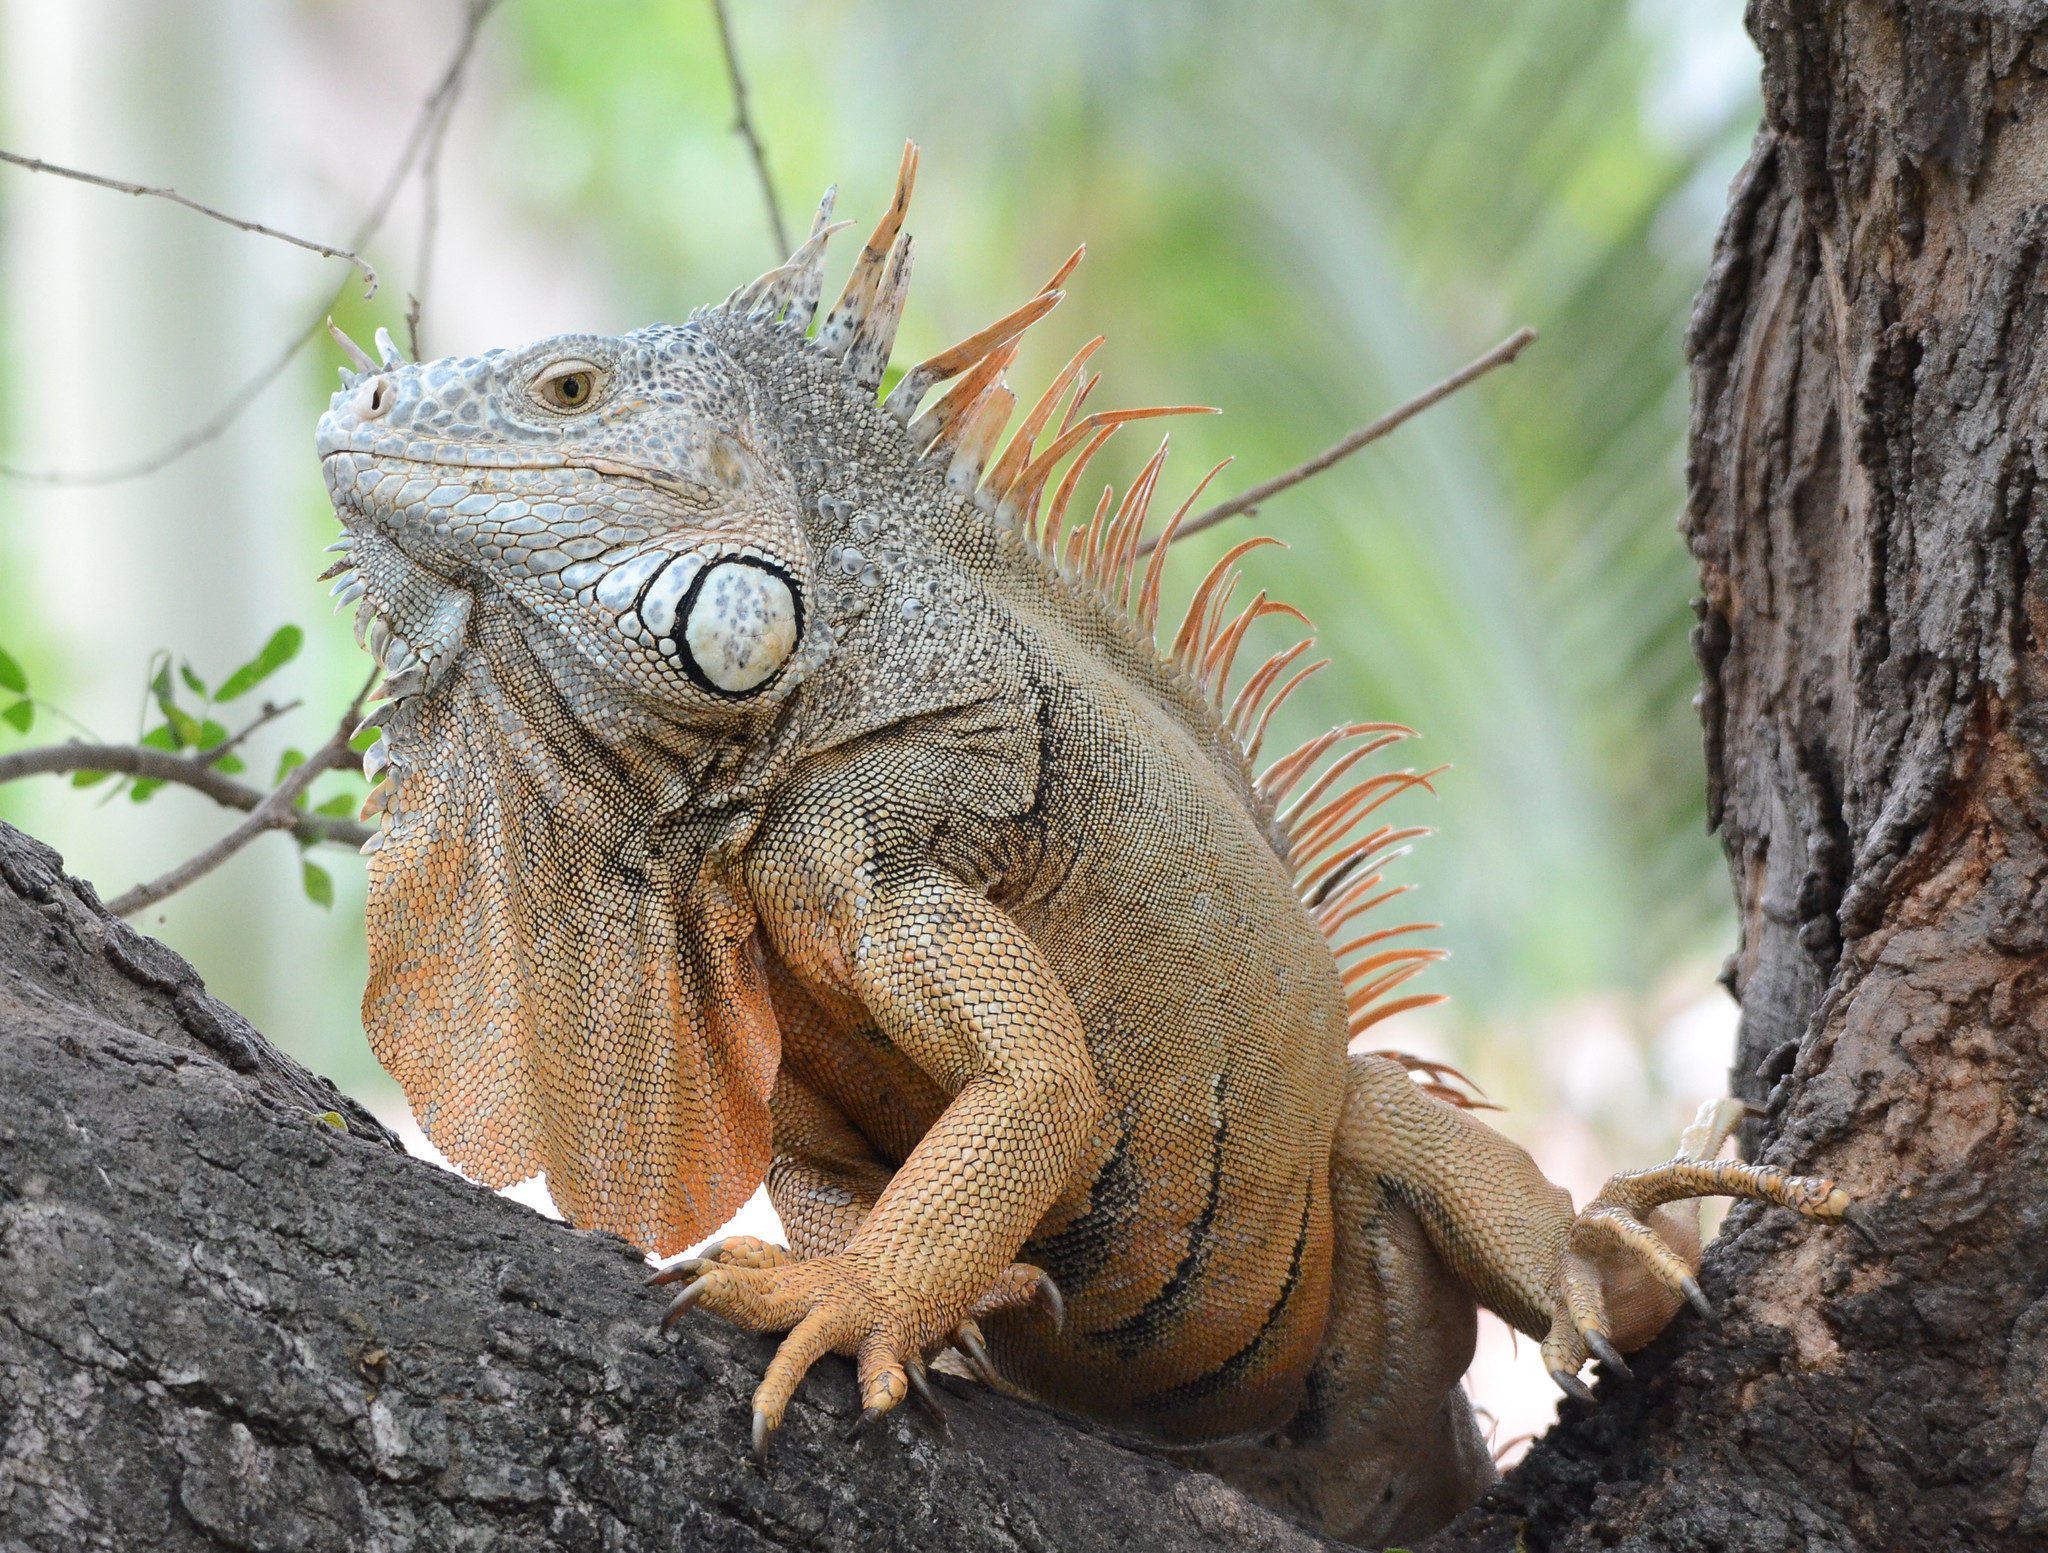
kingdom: Animalia
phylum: Chordata
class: Squamata
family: Iguanidae
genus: Iguana
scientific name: Iguana iguana
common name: Green iguana
